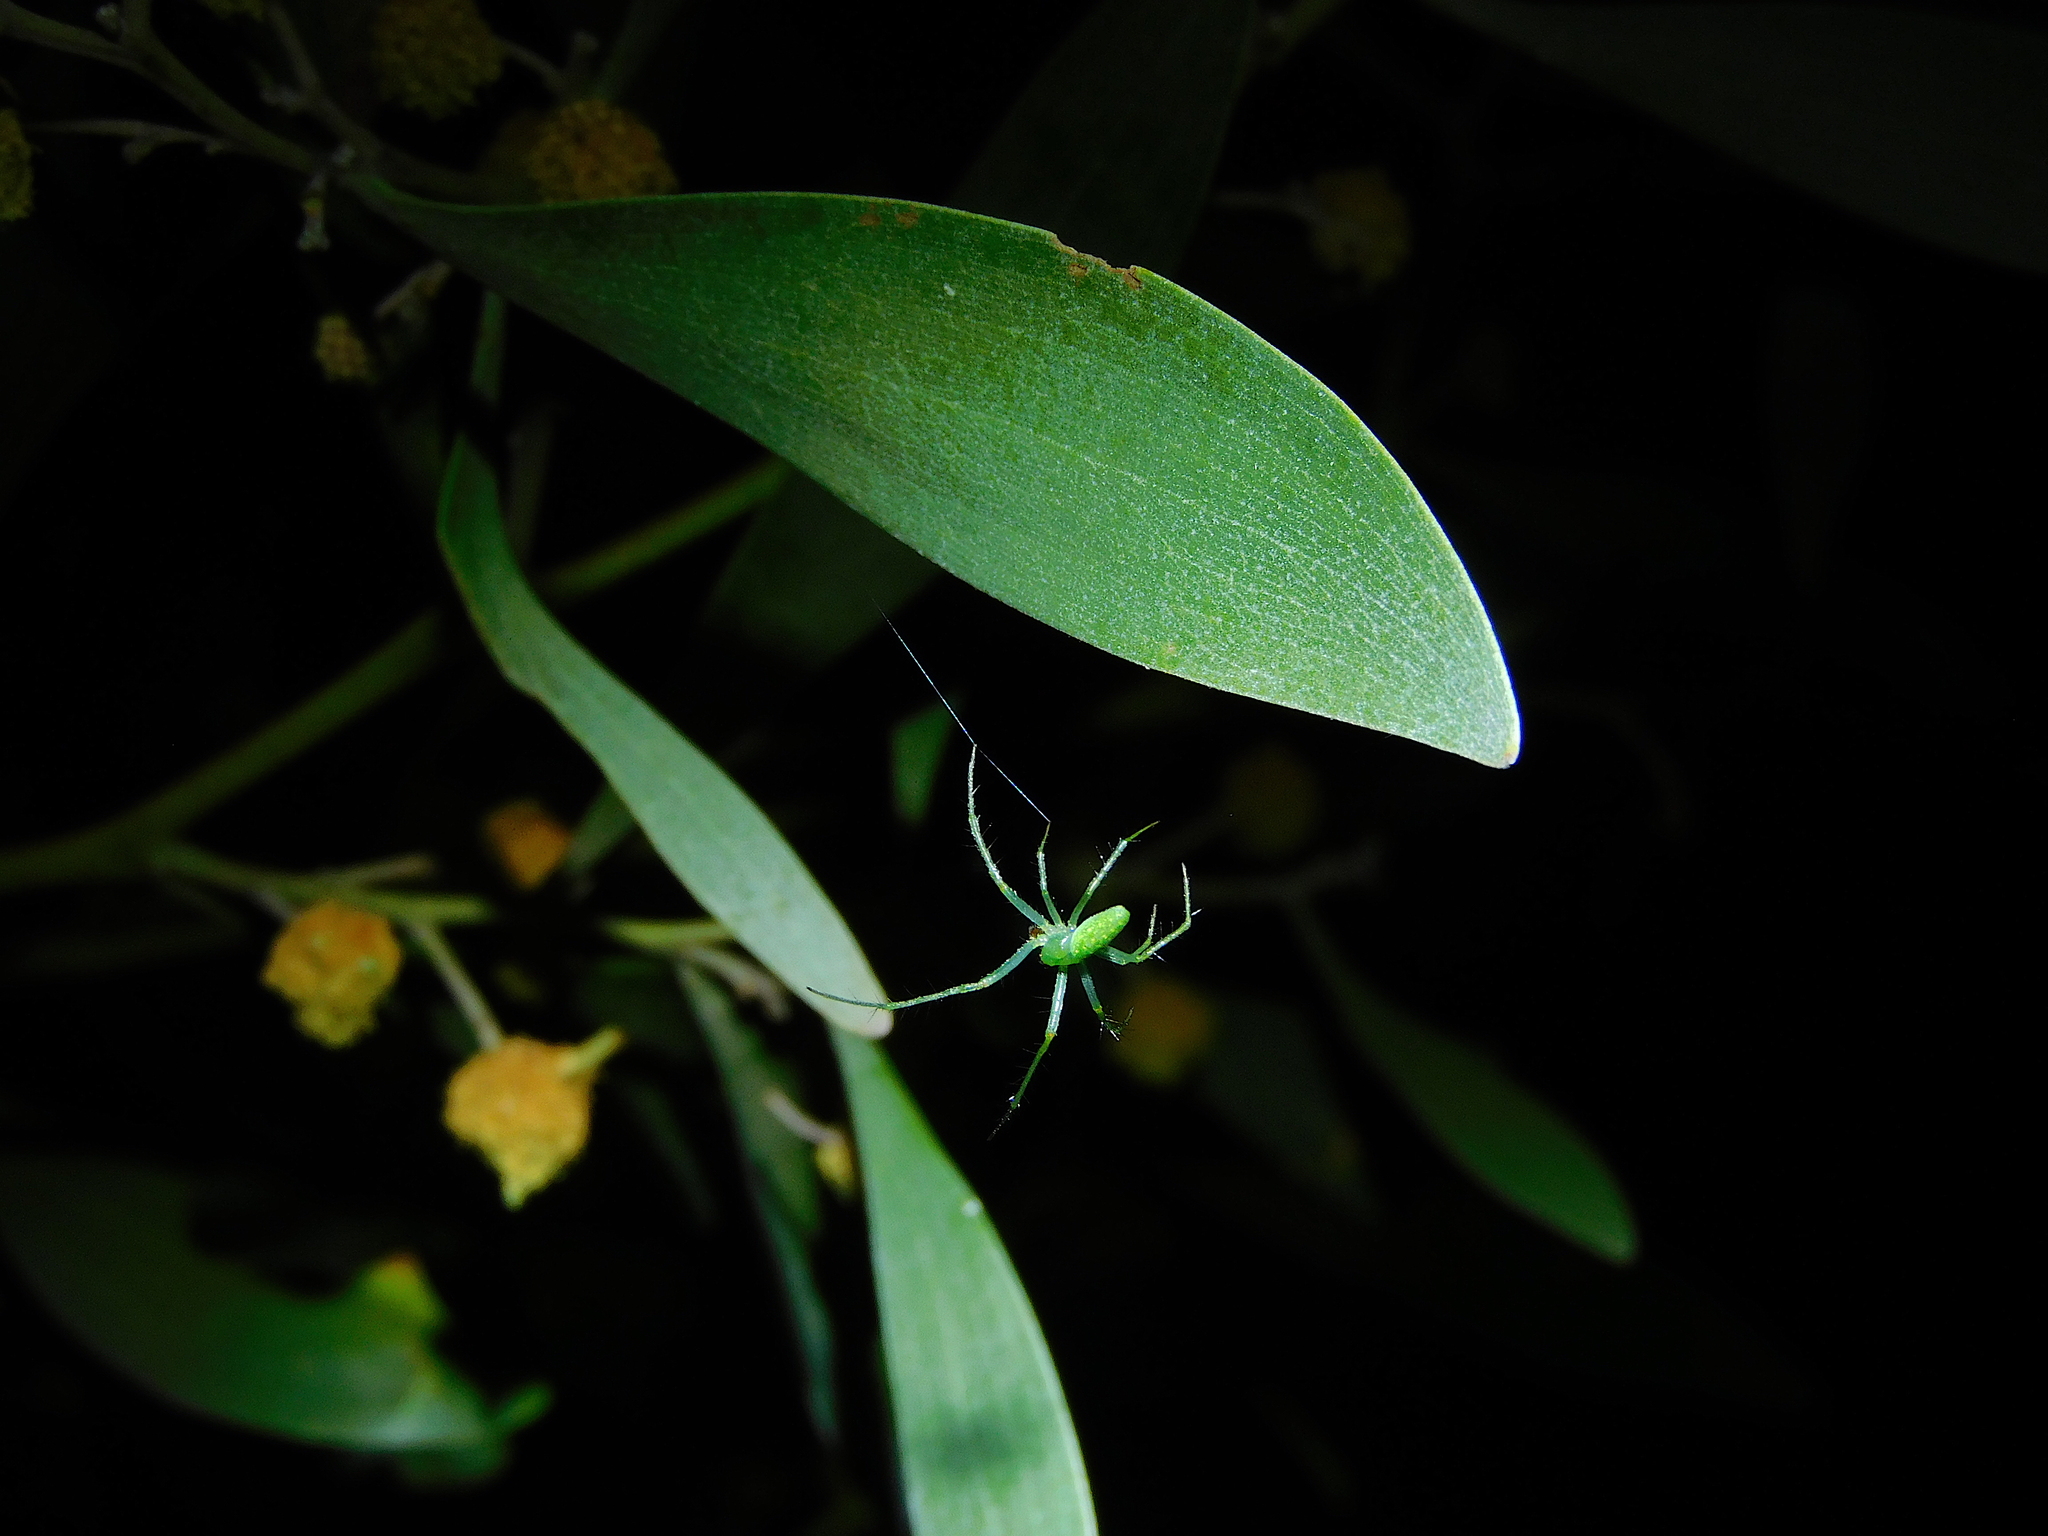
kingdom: Animalia
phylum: Arthropoda
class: Arachnida
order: Araneae
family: Araneidae
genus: Araneus
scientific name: Araneus talipedatus
